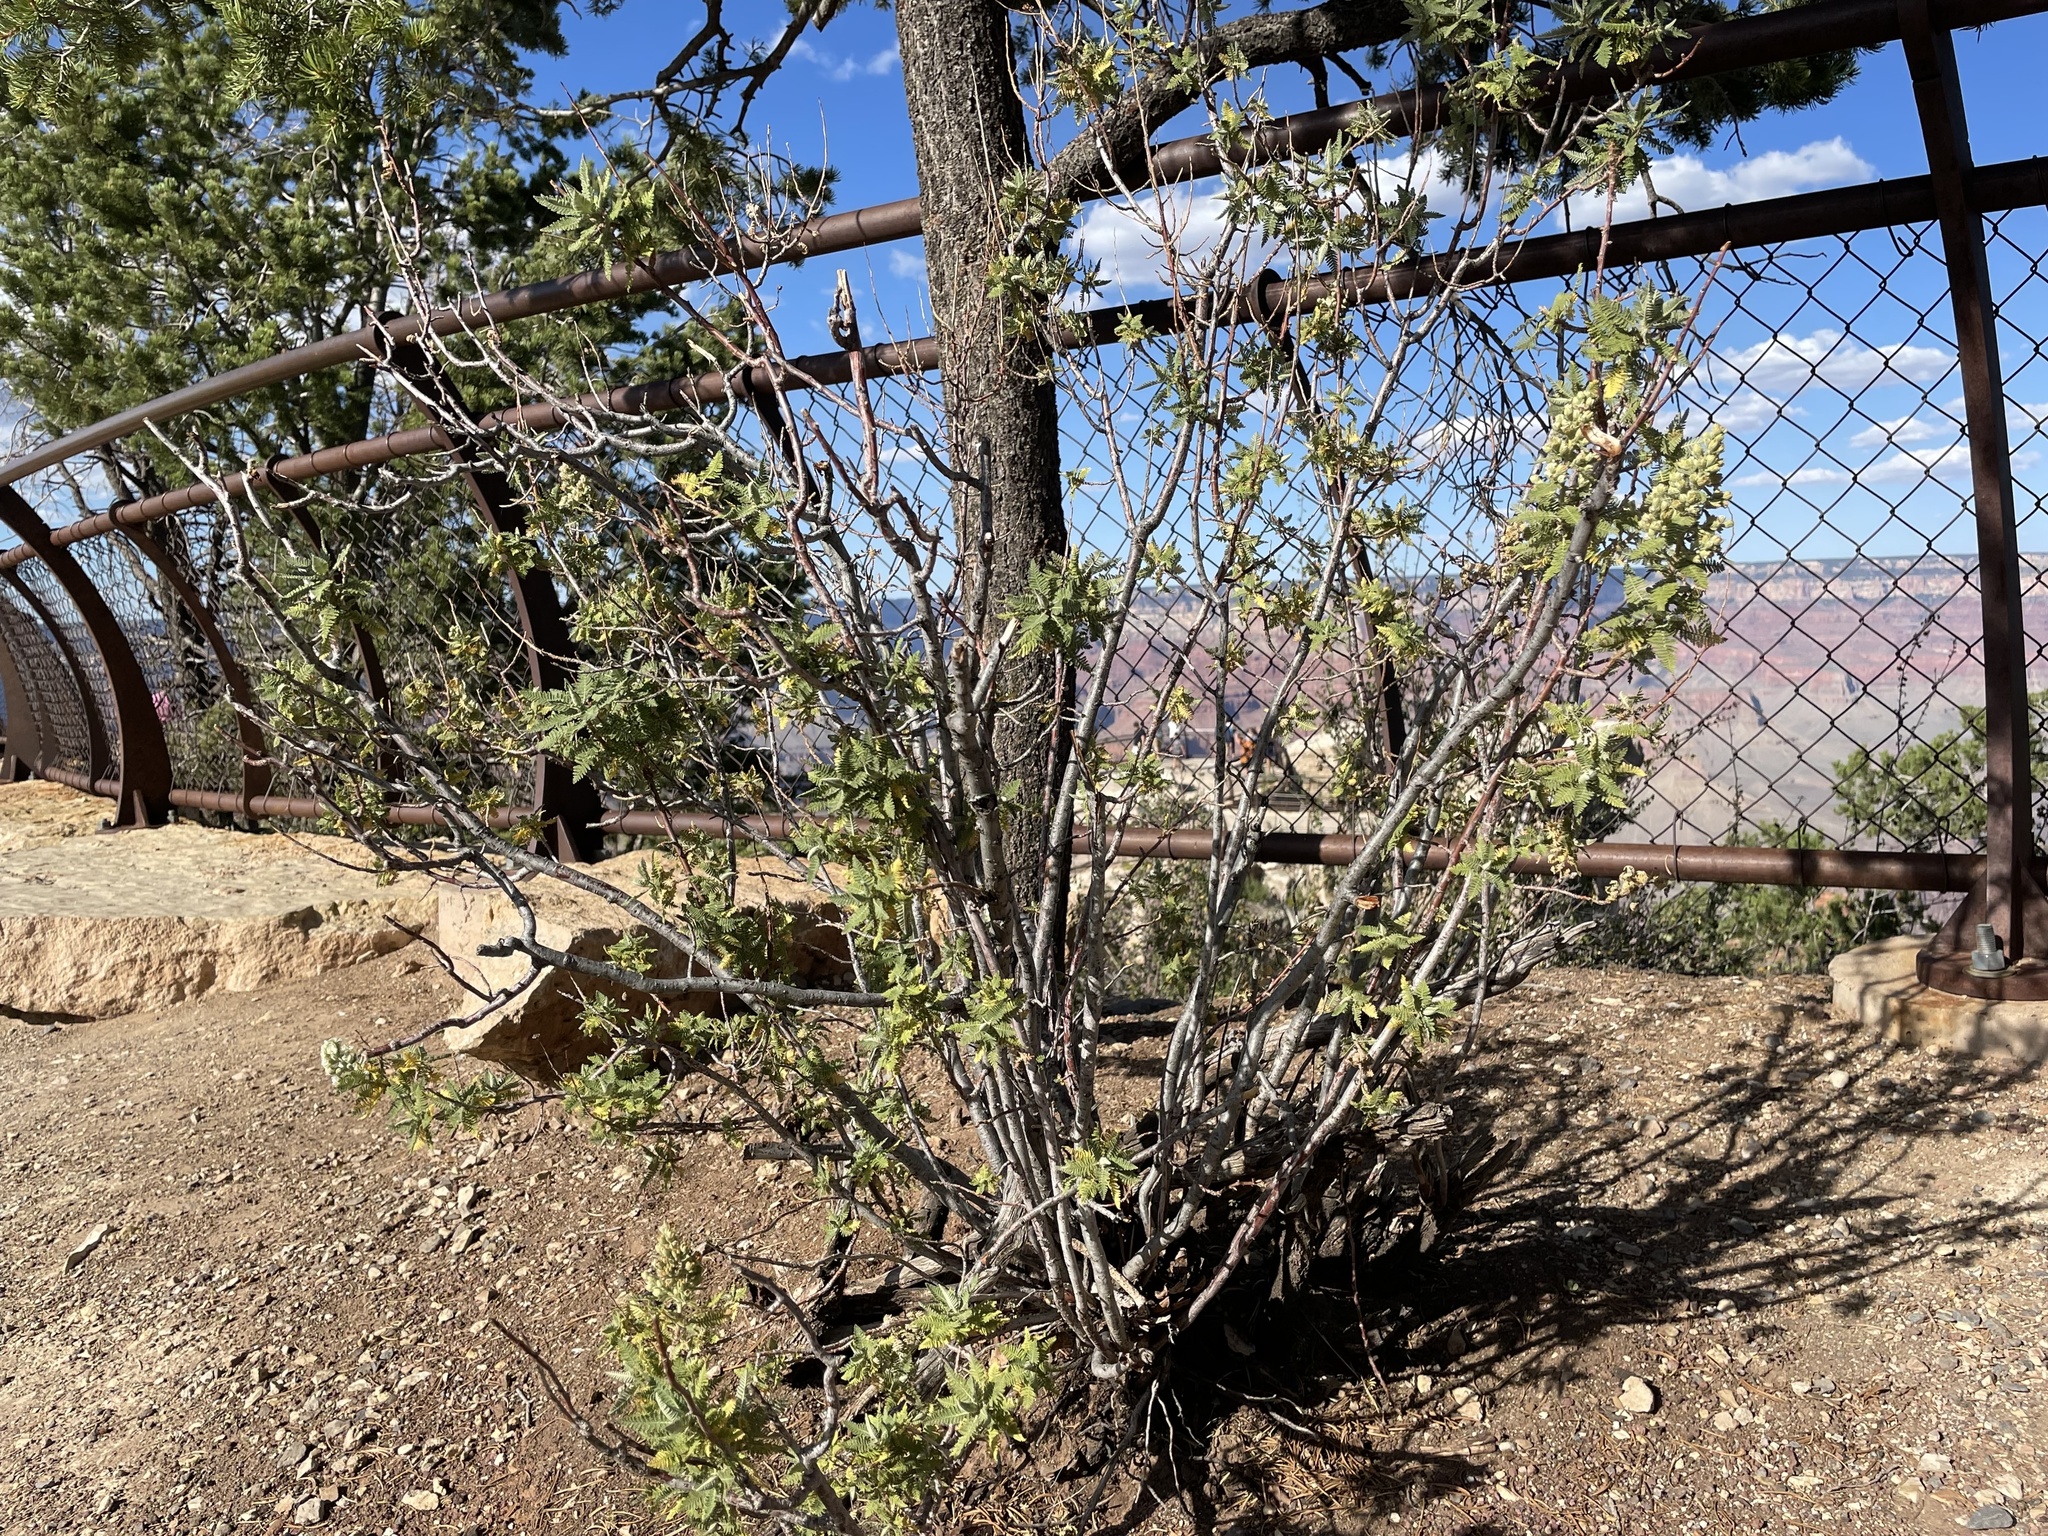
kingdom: Plantae
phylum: Tracheophyta
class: Magnoliopsida
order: Rosales
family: Rosaceae
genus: Chamaebatiaria
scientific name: Chamaebatiaria millefolium
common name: Fernbush
